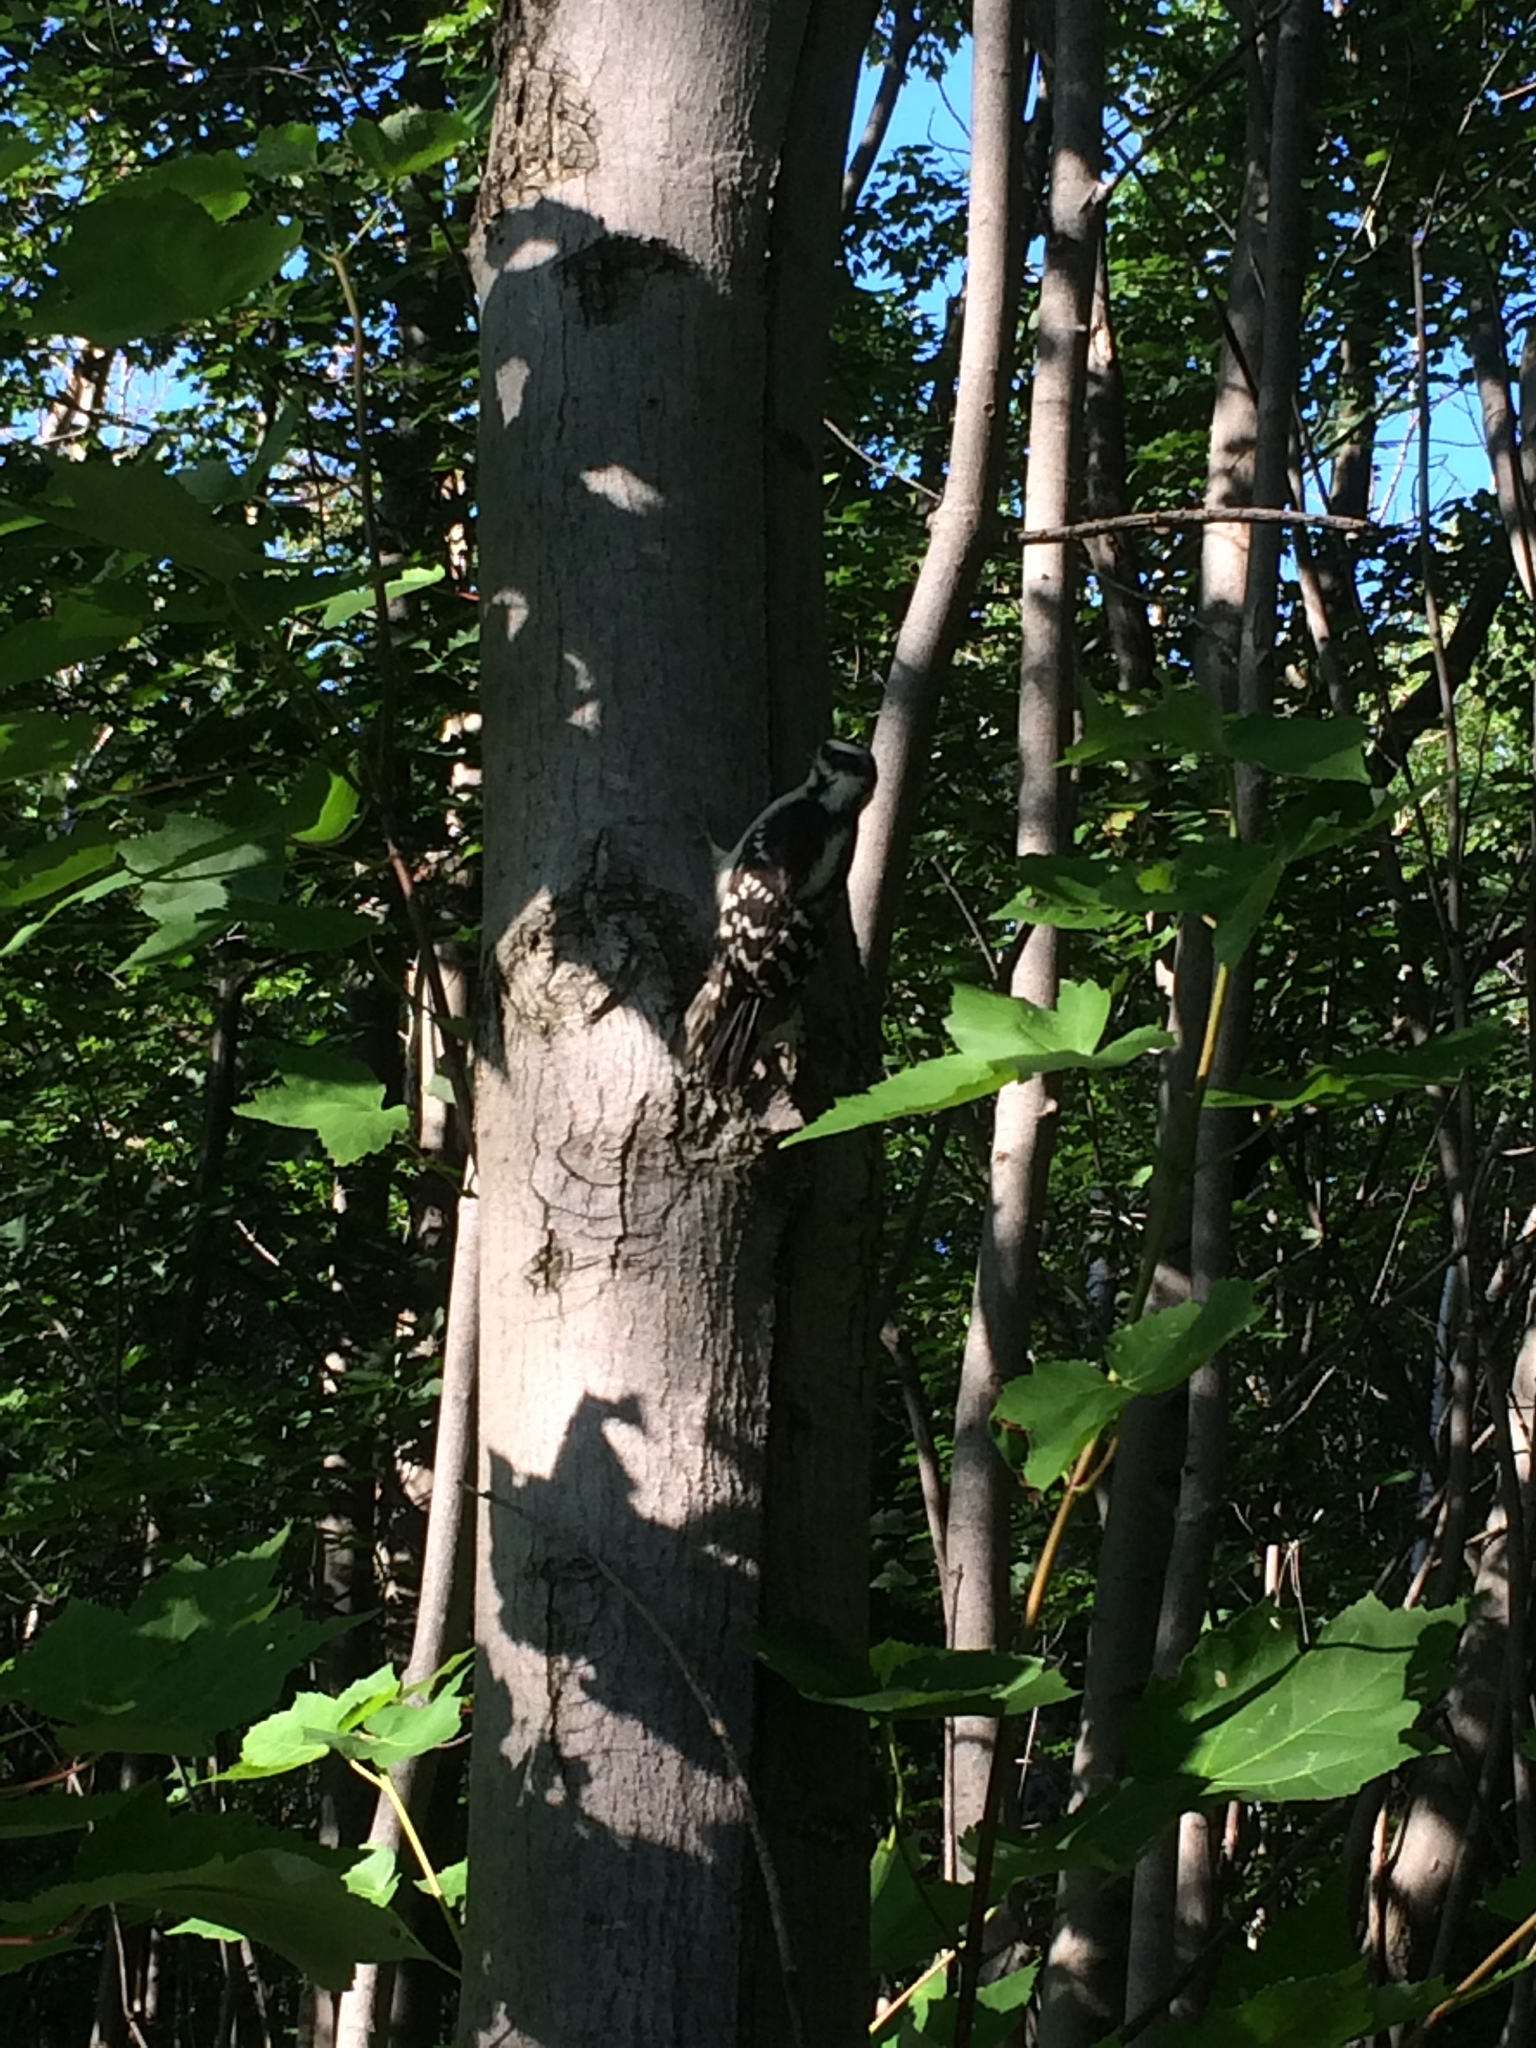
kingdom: Animalia
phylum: Chordata
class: Aves
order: Piciformes
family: Picidae
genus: Dryobates
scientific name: Dryobates pubescens
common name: Downy woodpecker
